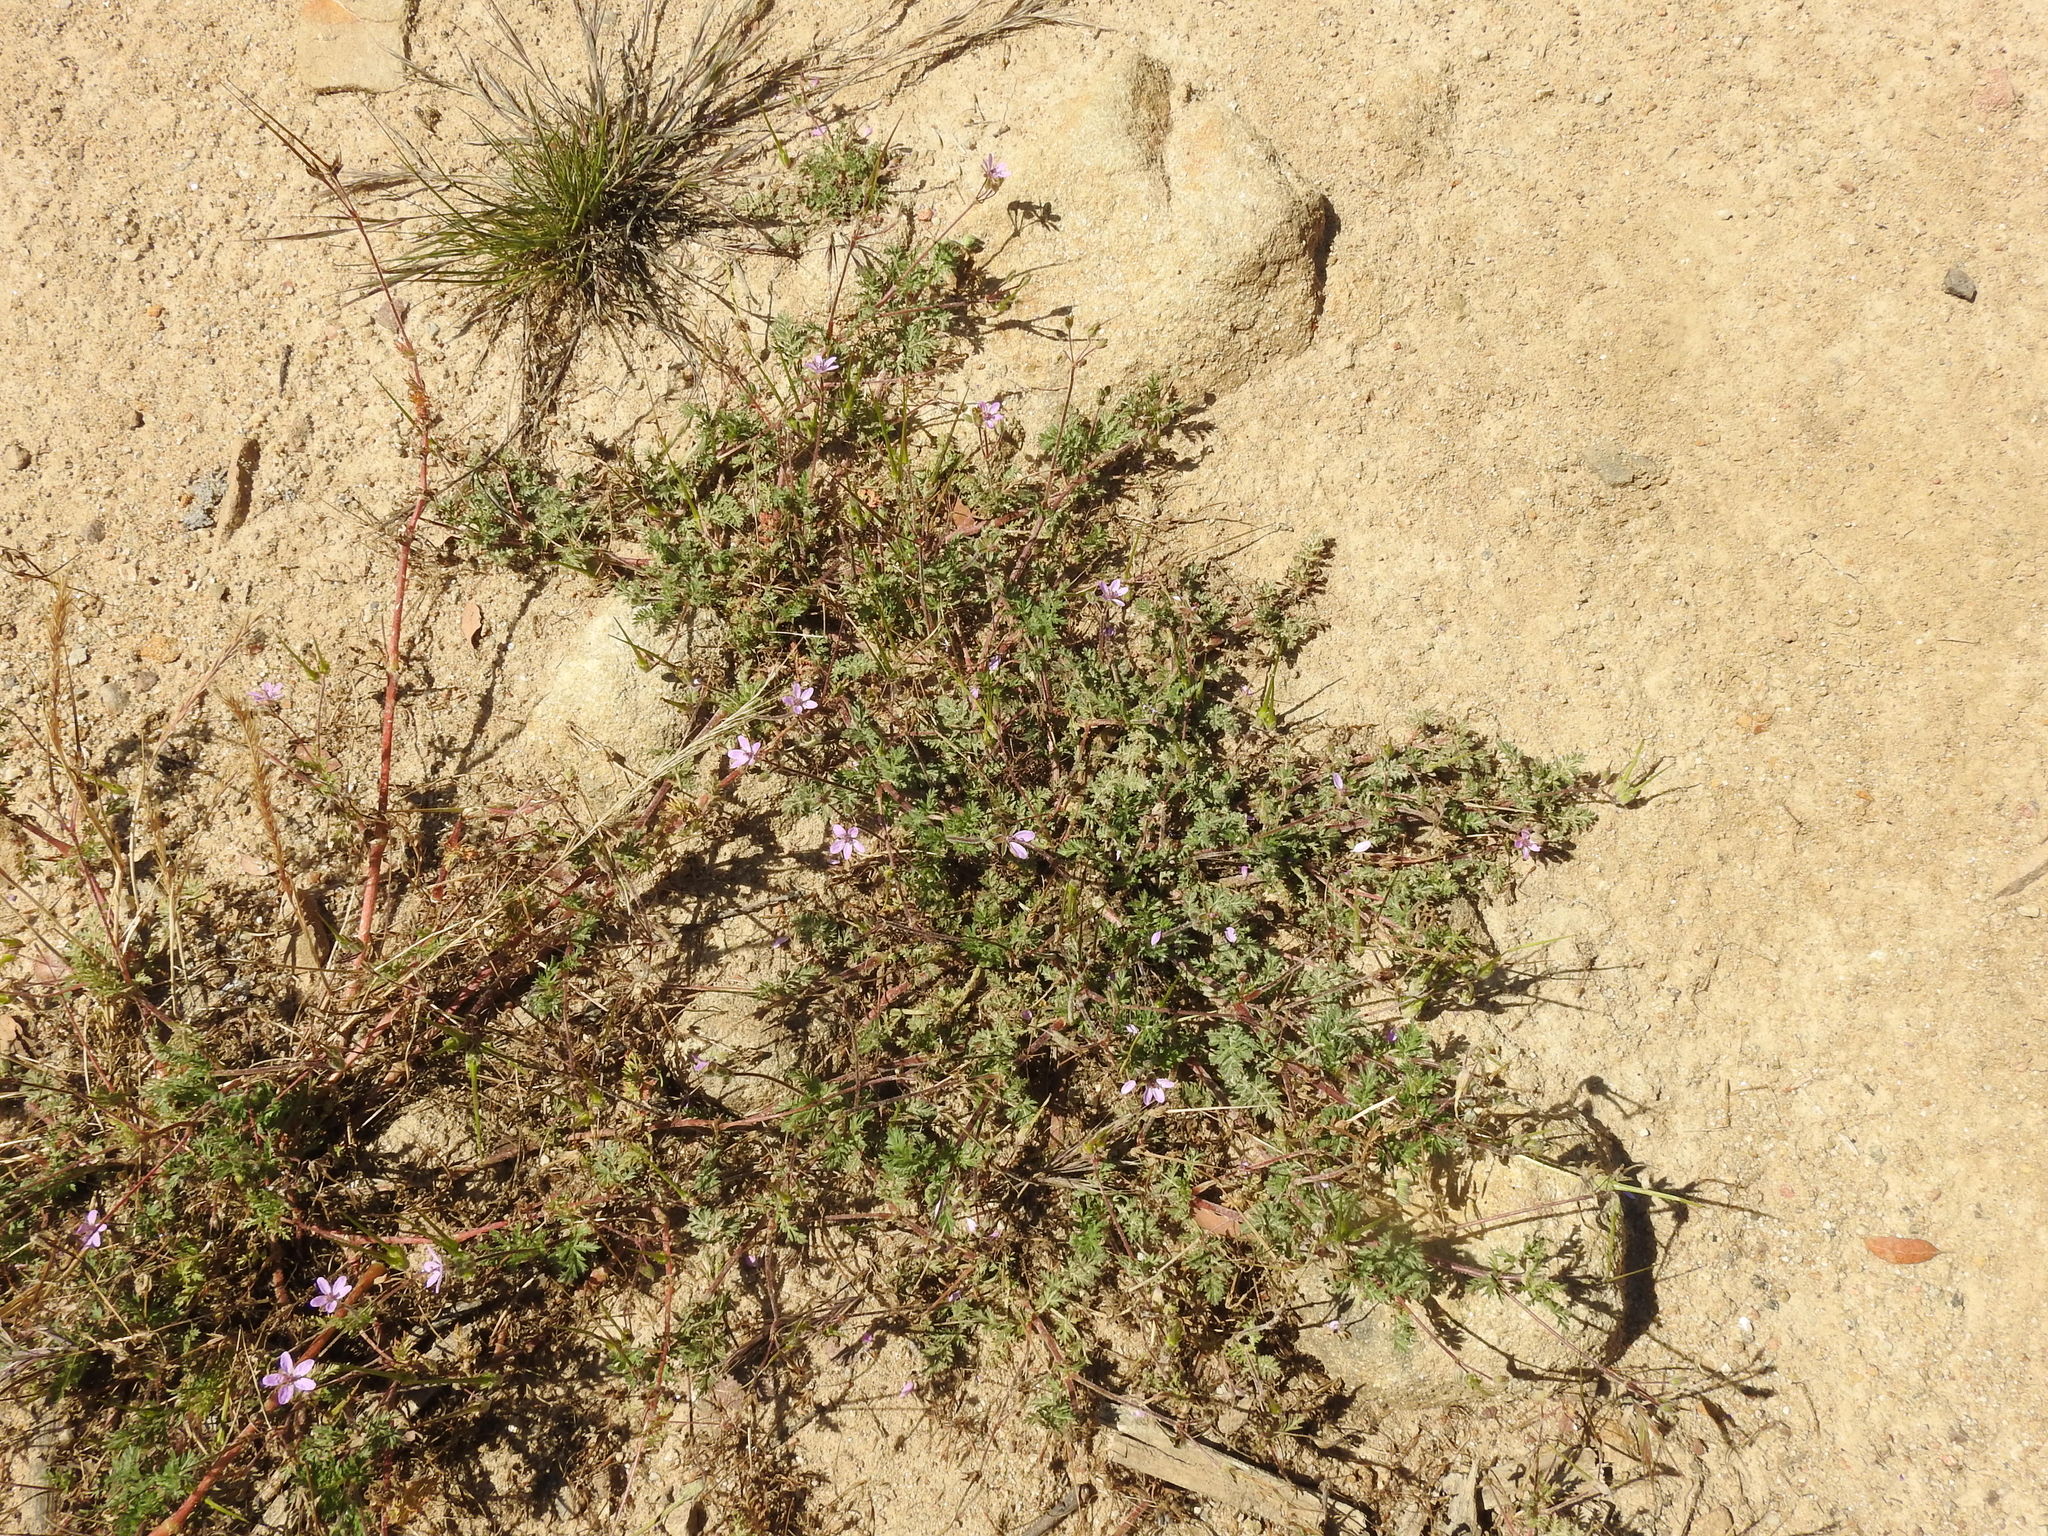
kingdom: Plantae
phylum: Tracheophyta
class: Magnoliopsida
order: Geraniales
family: Geraniaceae
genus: Erodium
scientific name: Erodium cicutarium
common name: Common stork's-bill
